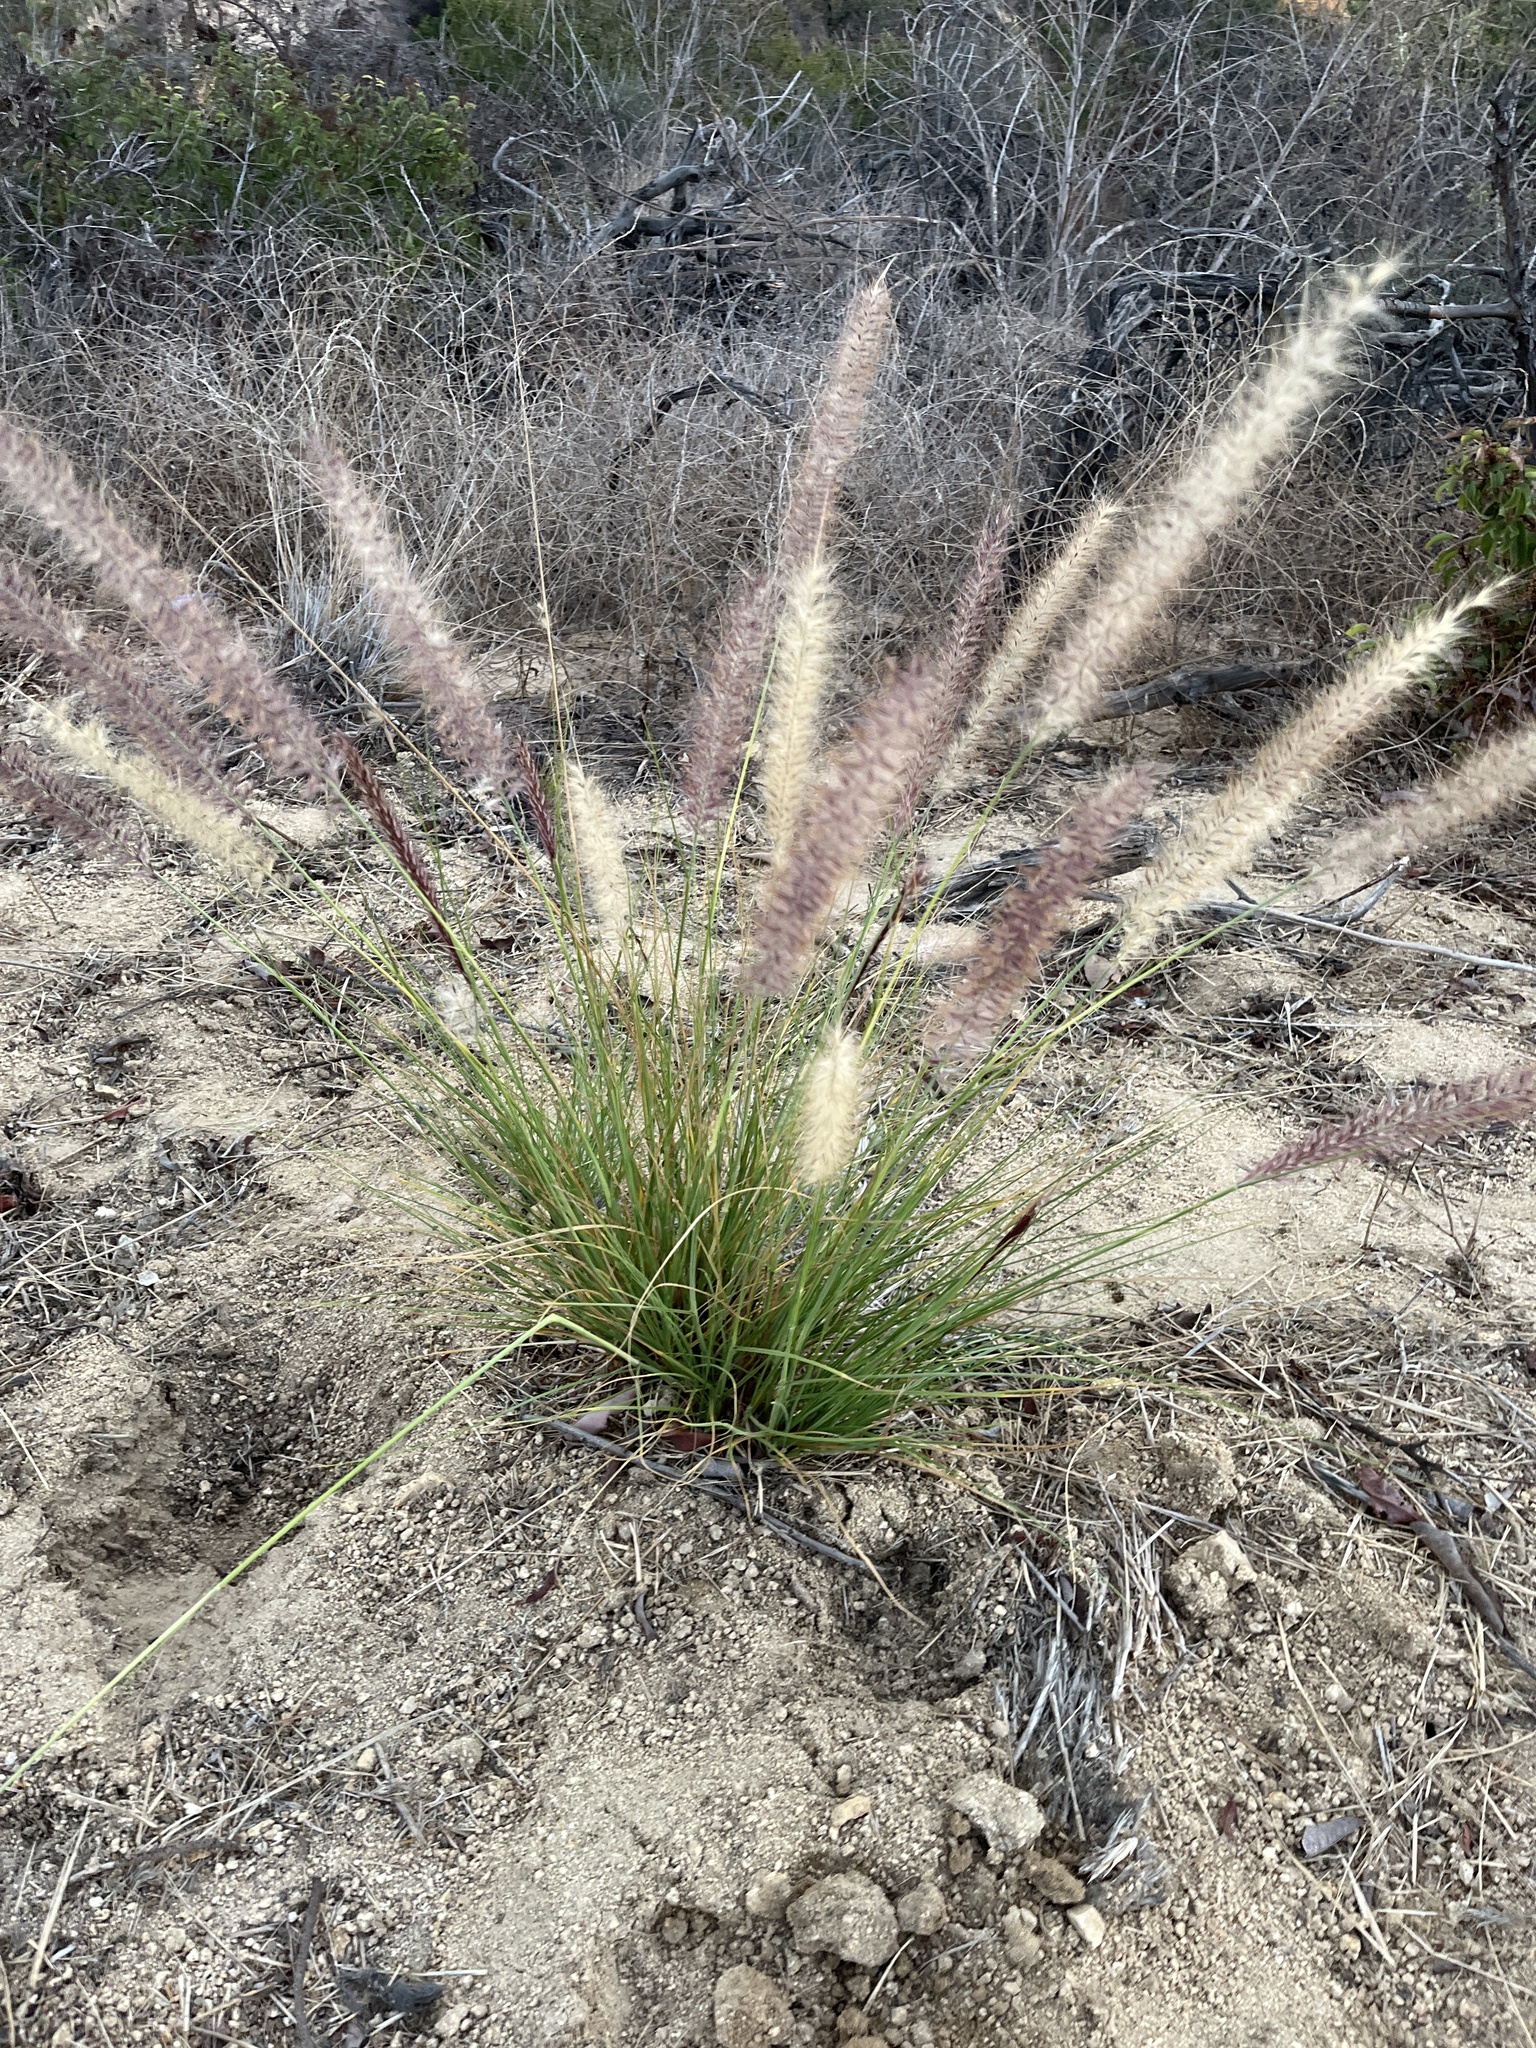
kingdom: Plantae
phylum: Tracheophyta
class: Liliopsida
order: Poales
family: Poaceae
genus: Cenchrus
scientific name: Cenchrus setaceus
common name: Crimson fountaingrass
